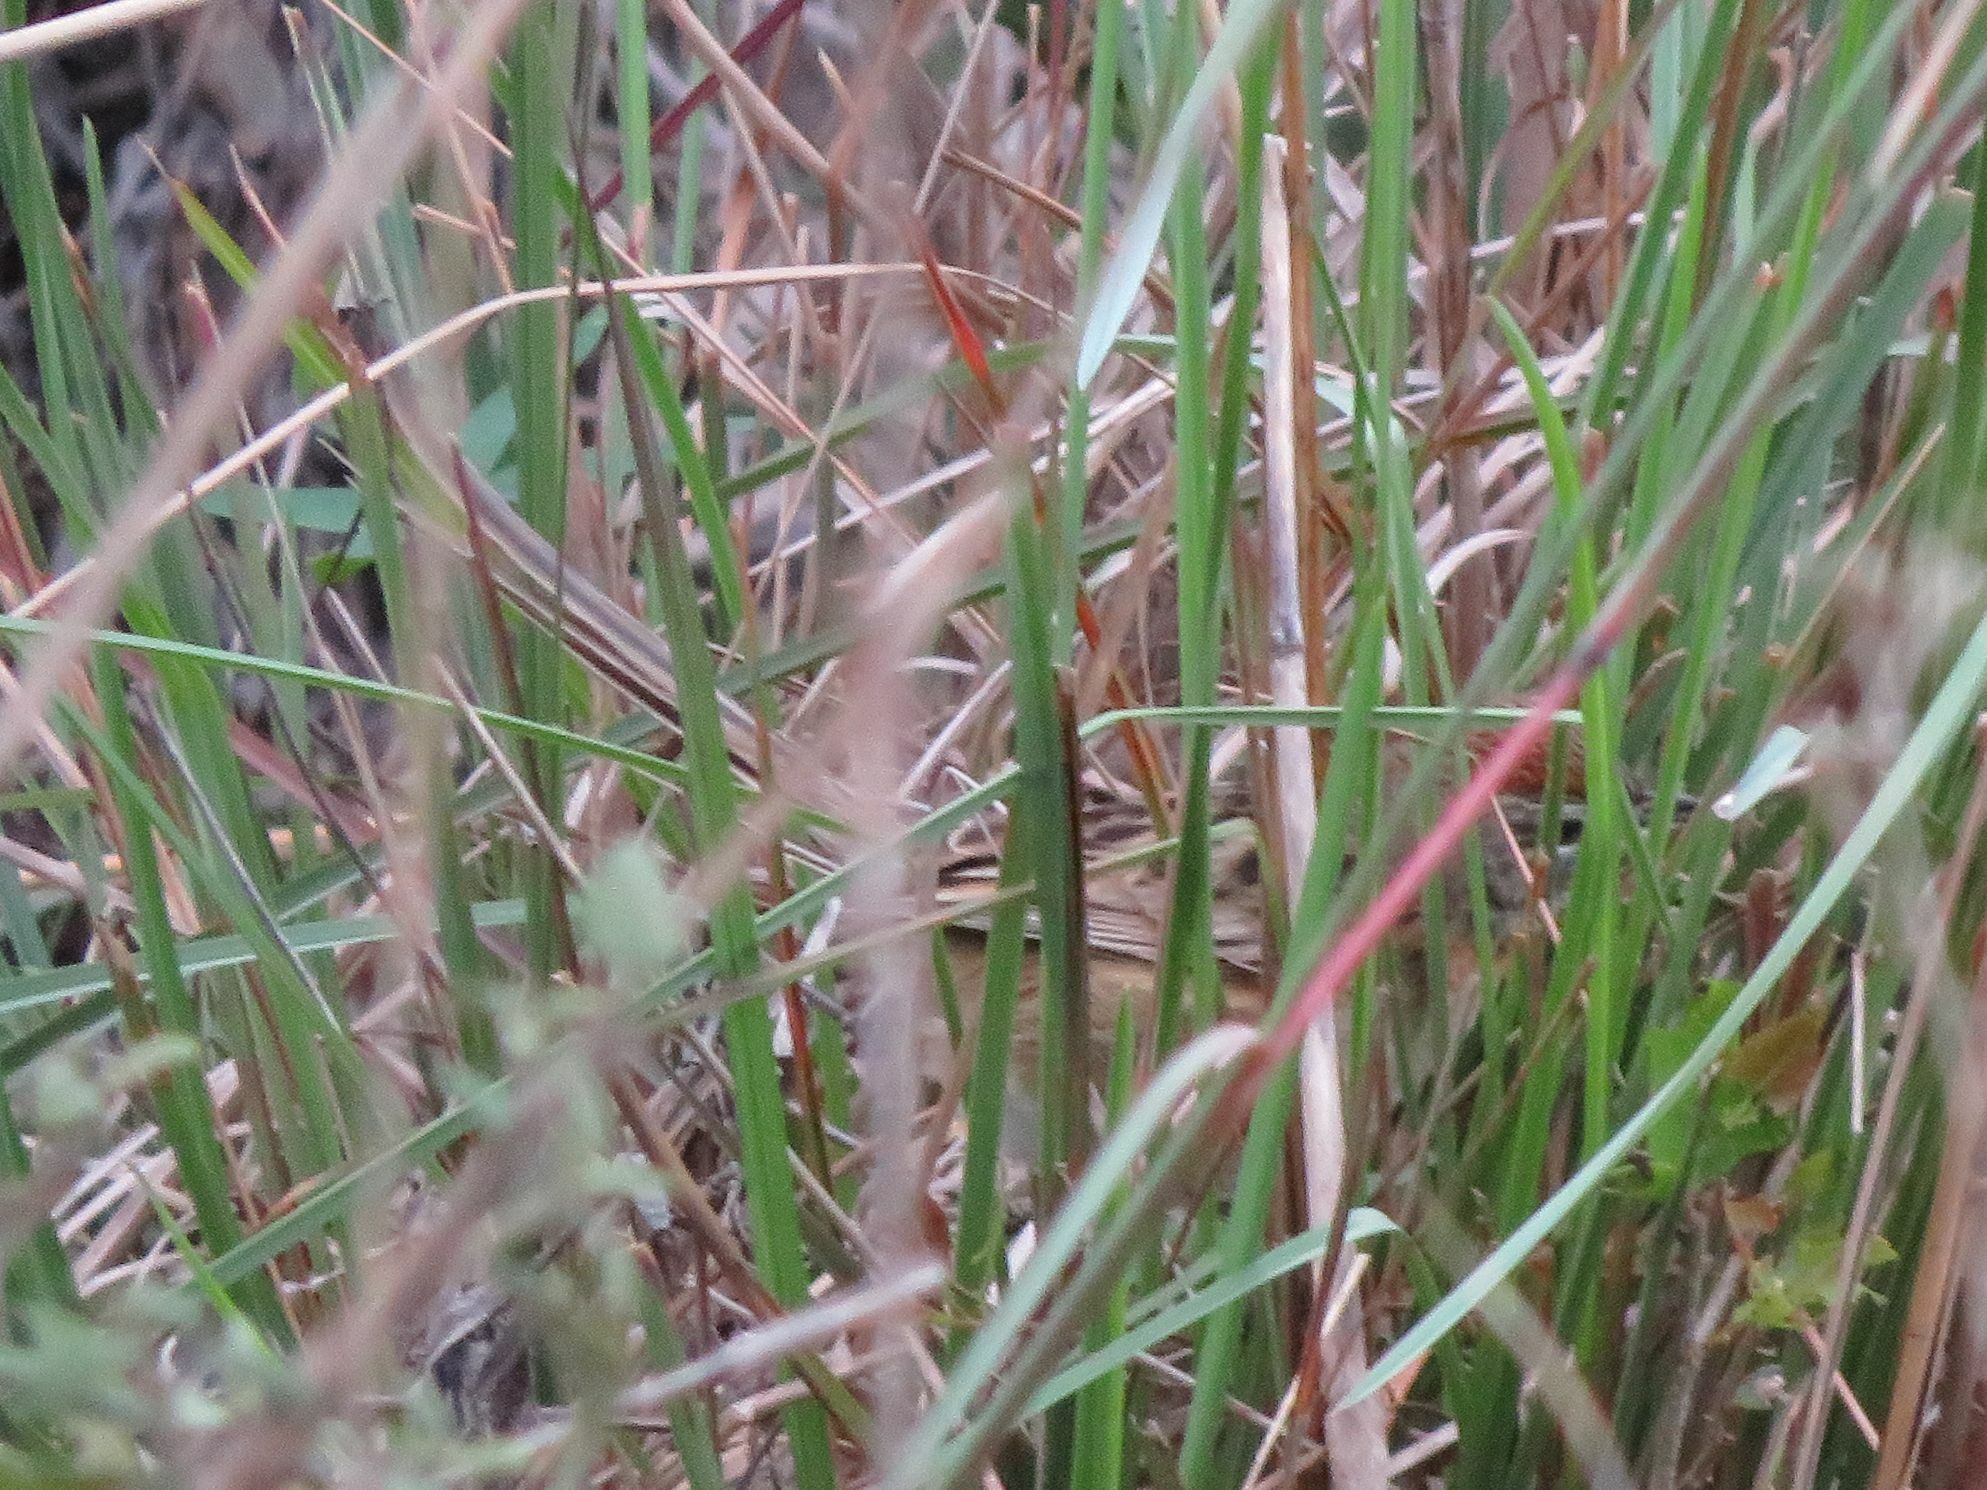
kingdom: Animalia
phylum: Chordata
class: Aves
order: Passeriformes
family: Furnariidae
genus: Schoeniophylax
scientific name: Schoeniophylax phryganophilus
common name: Chotoy spinetail
